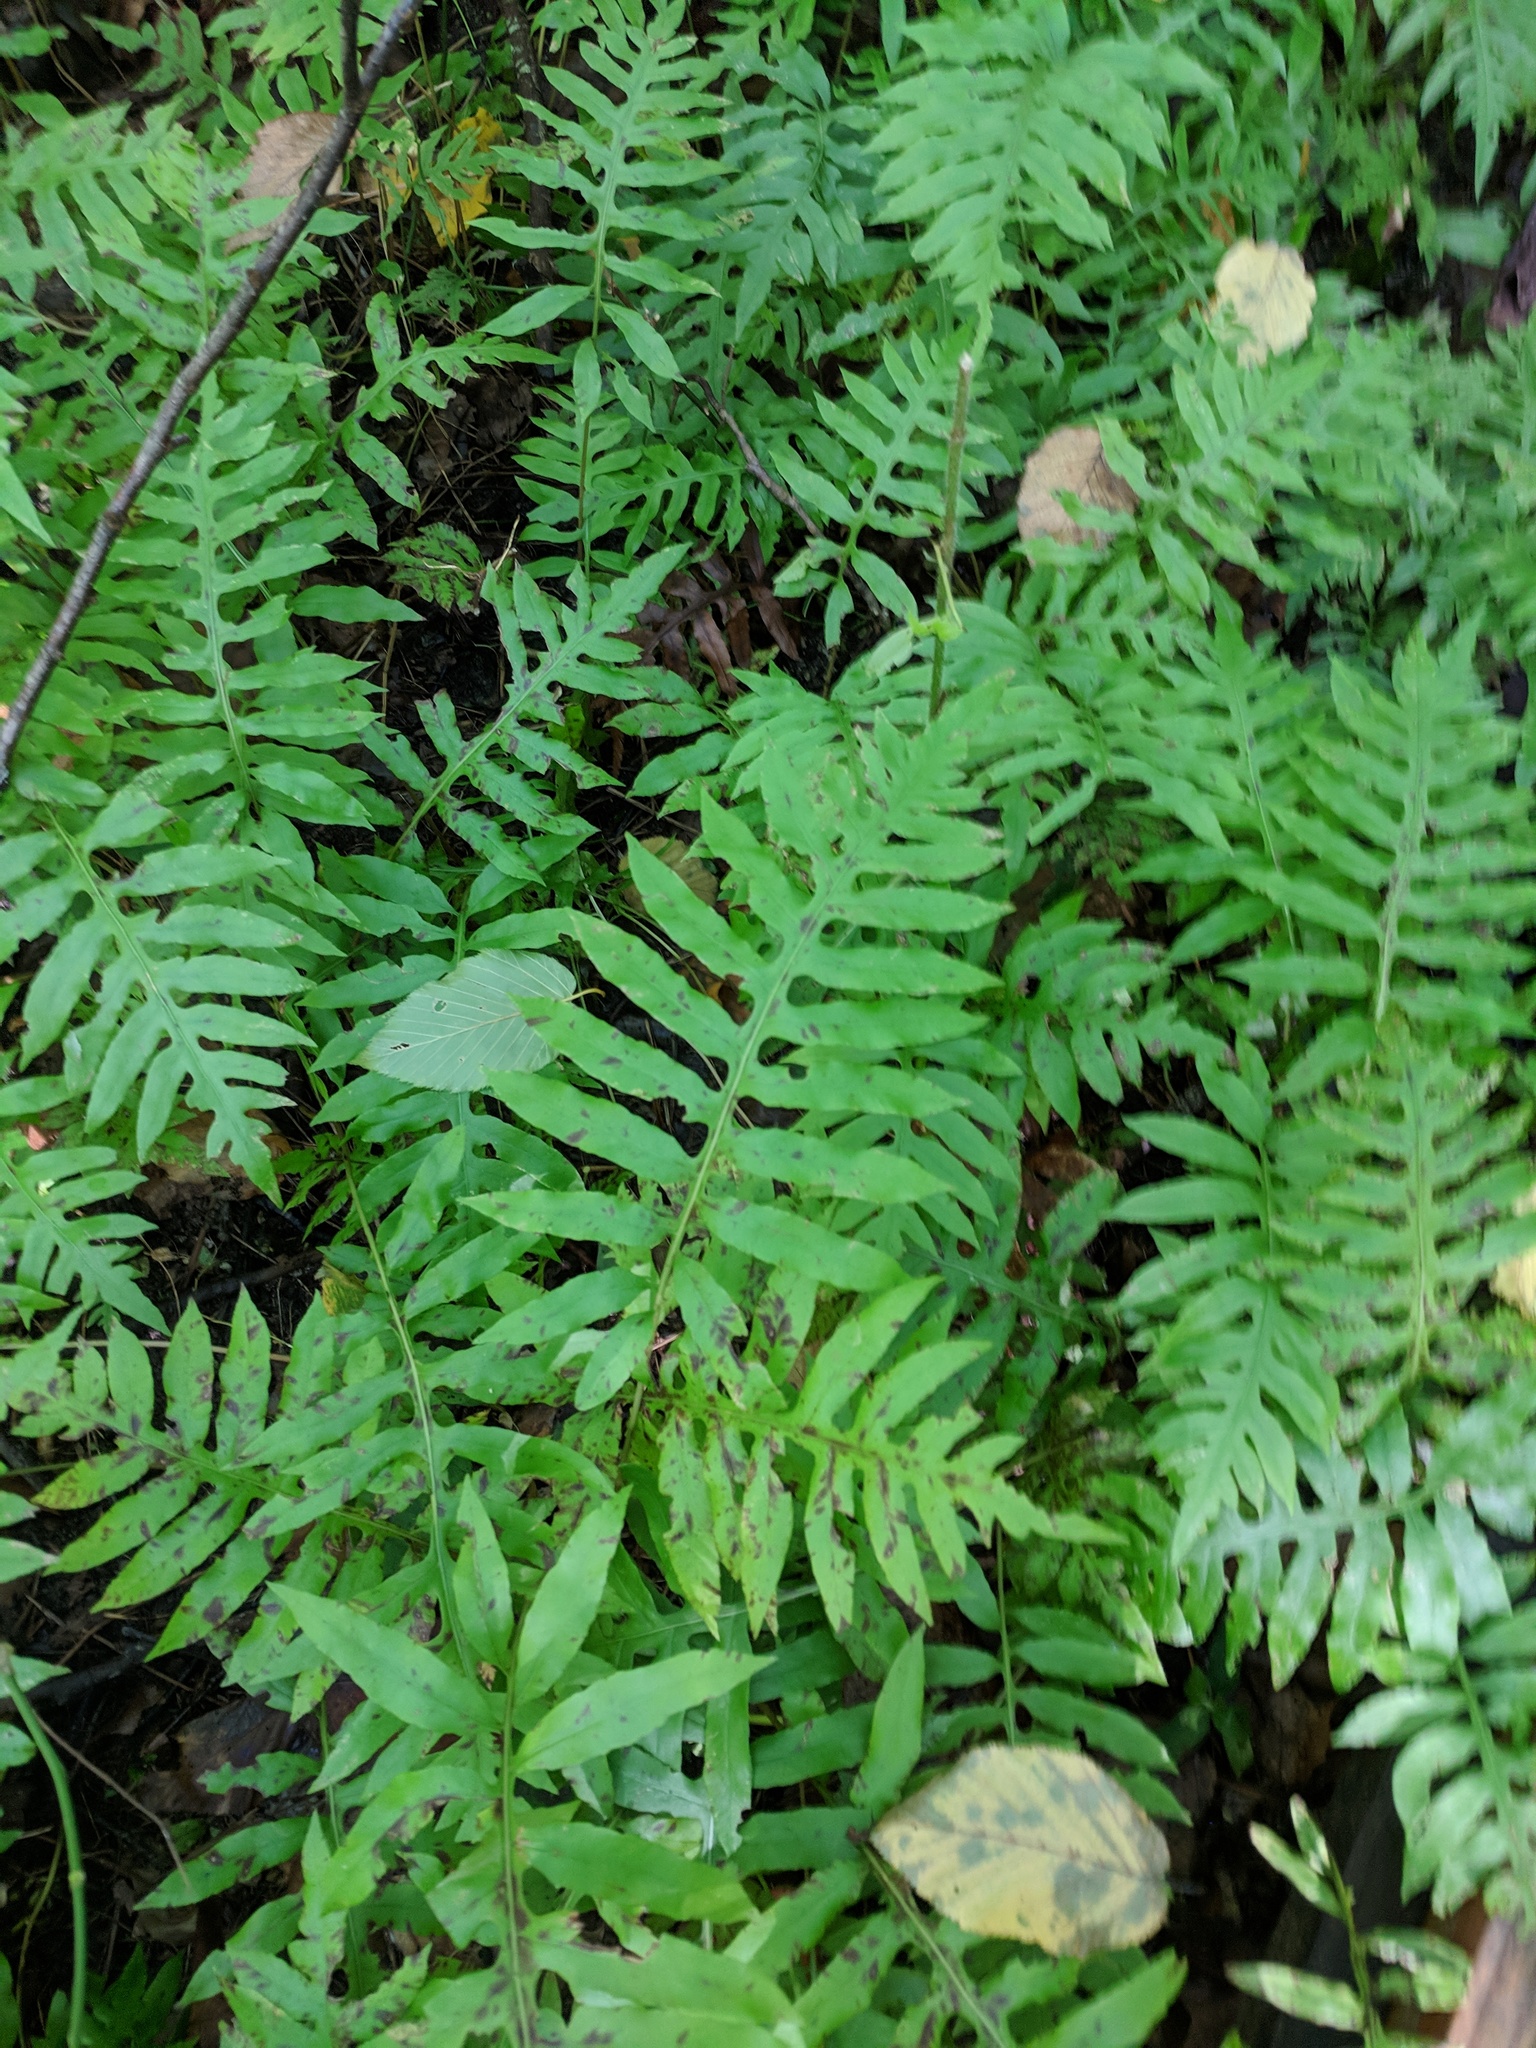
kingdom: Plantae
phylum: Tracheophyta
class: Polypodiopsida
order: Polypodiales
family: Blechnaceae
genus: Lorinseria
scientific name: Lorinseria areolata
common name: Dwarf chain fern
